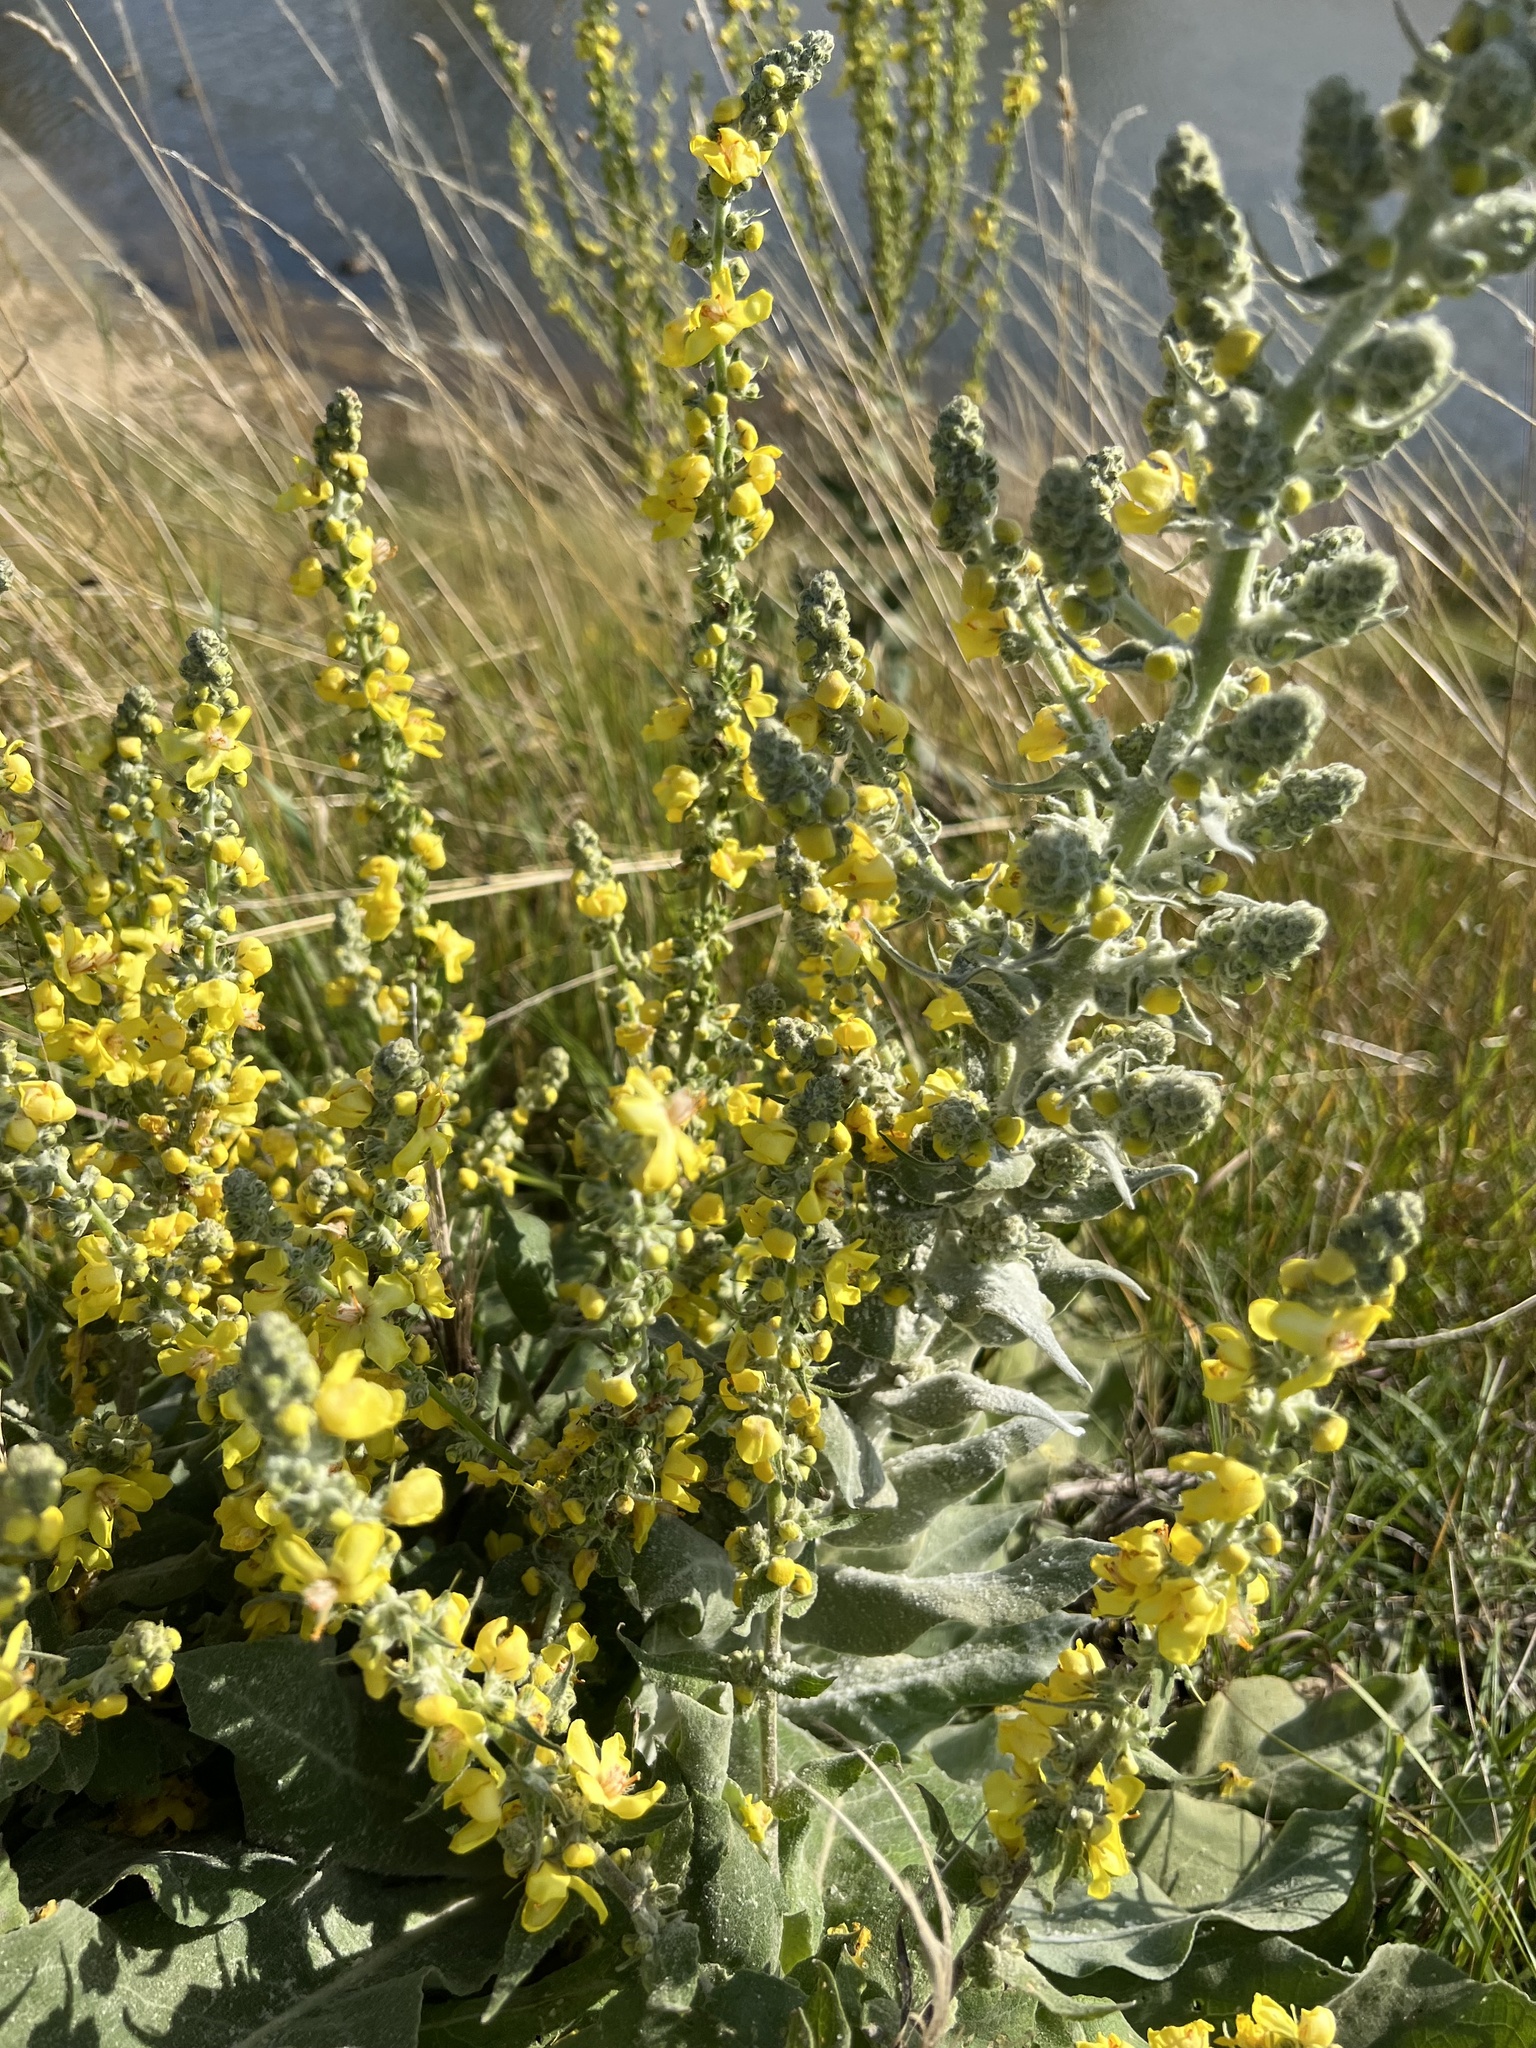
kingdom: Plantae
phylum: Tracheophyta
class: Magnoliopsida
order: Lamiales
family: Scrophulariaceae
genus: Verbascum
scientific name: Verbascum pulverulentum
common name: Broad-leaf mullein
